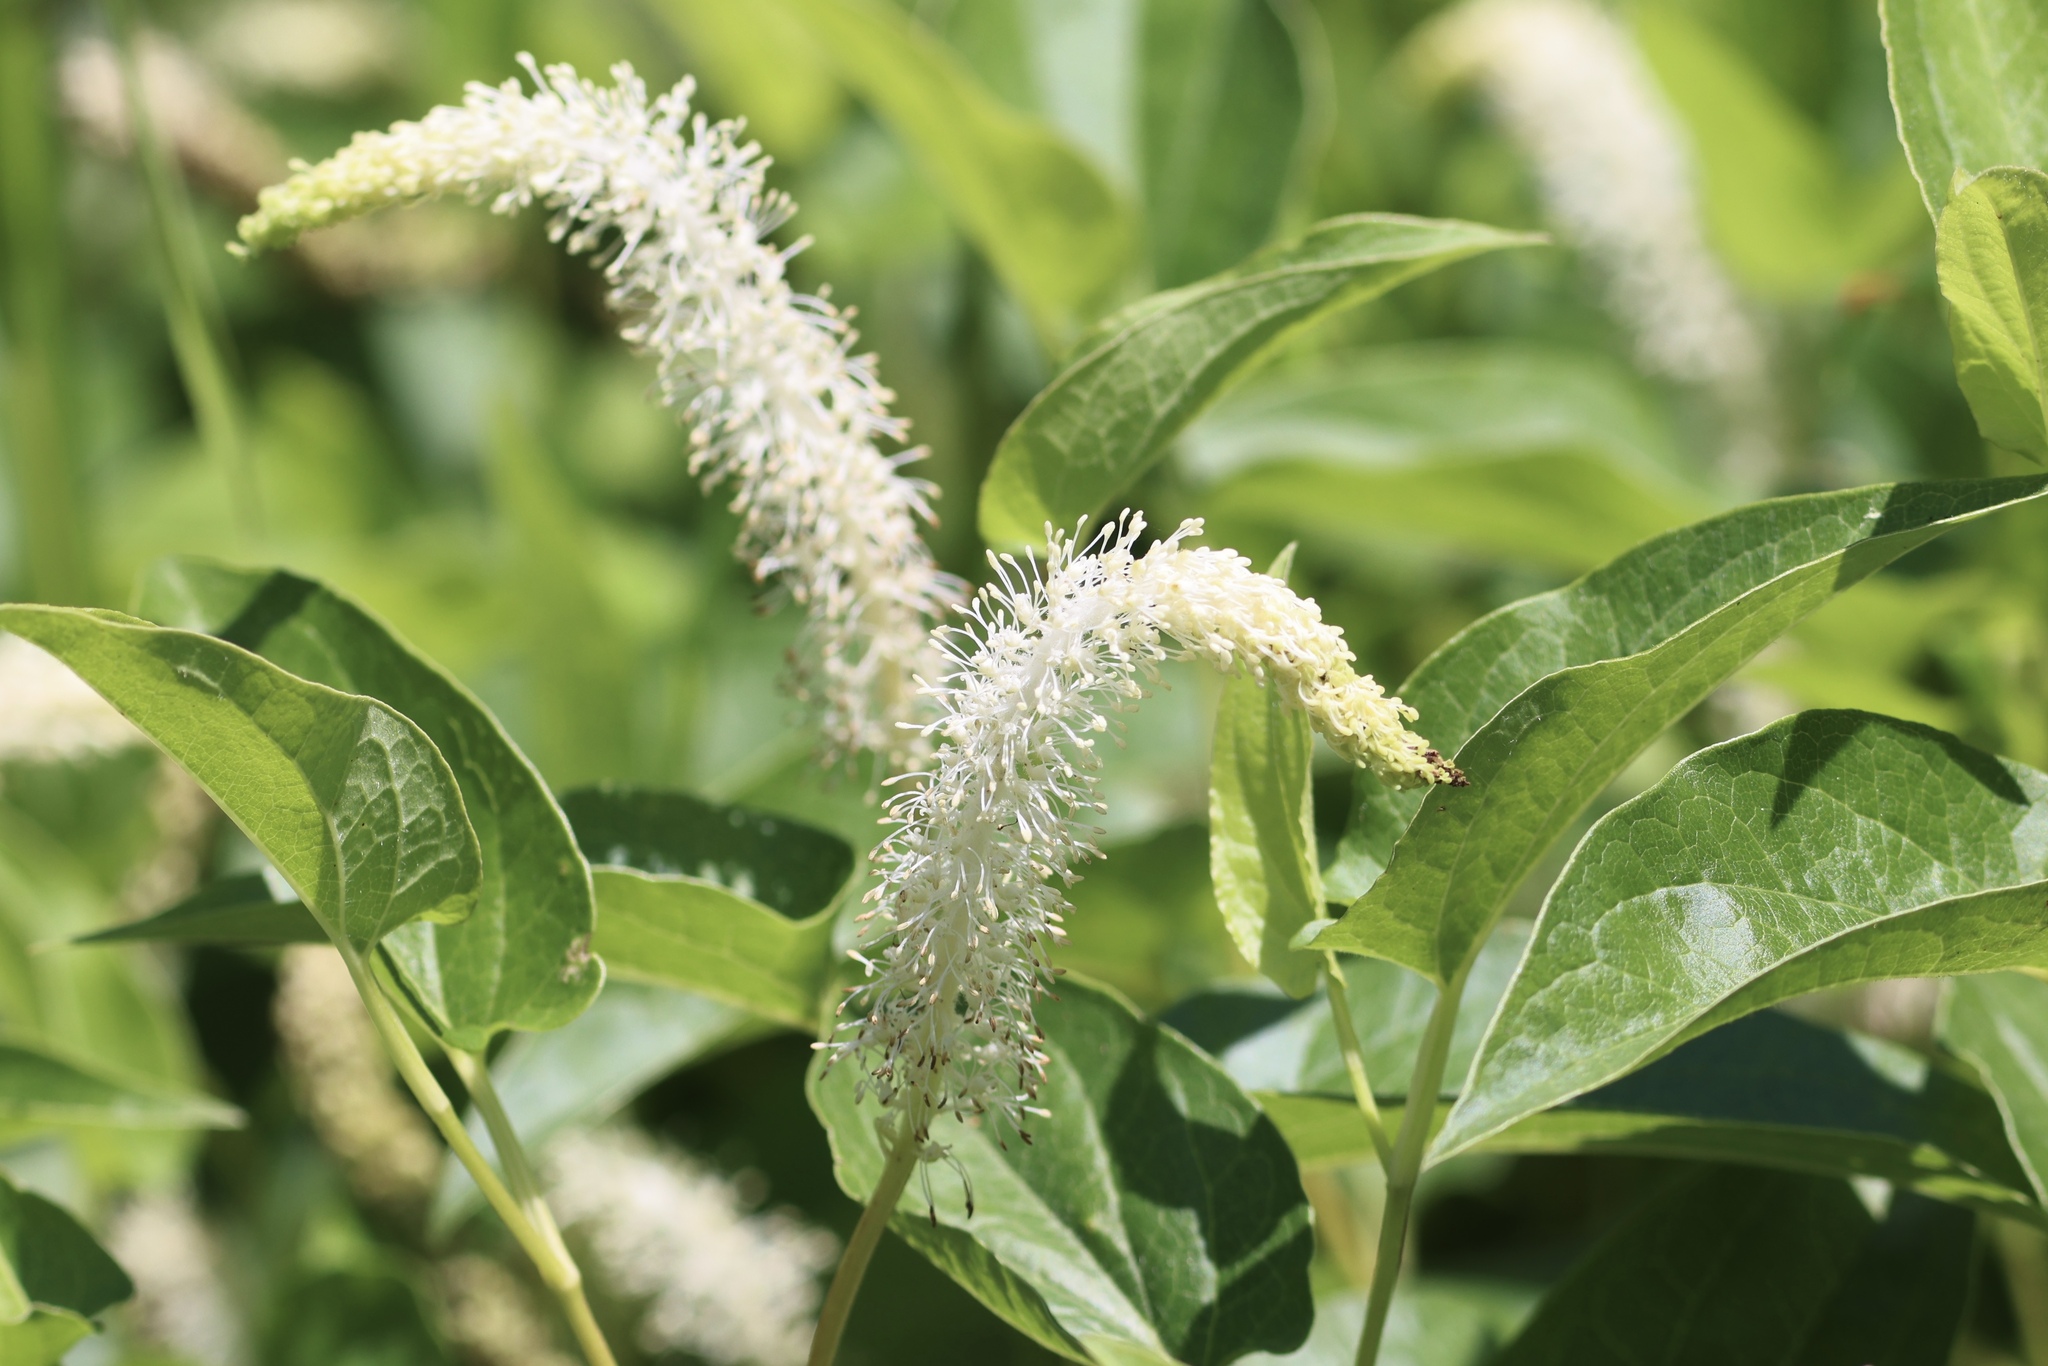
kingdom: Plantae
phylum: Tracheophyta
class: Magnoliopsida
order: Piperales
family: Saururaceae
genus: Saururus
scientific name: Saururus cernuus
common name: Lizard's-tail
